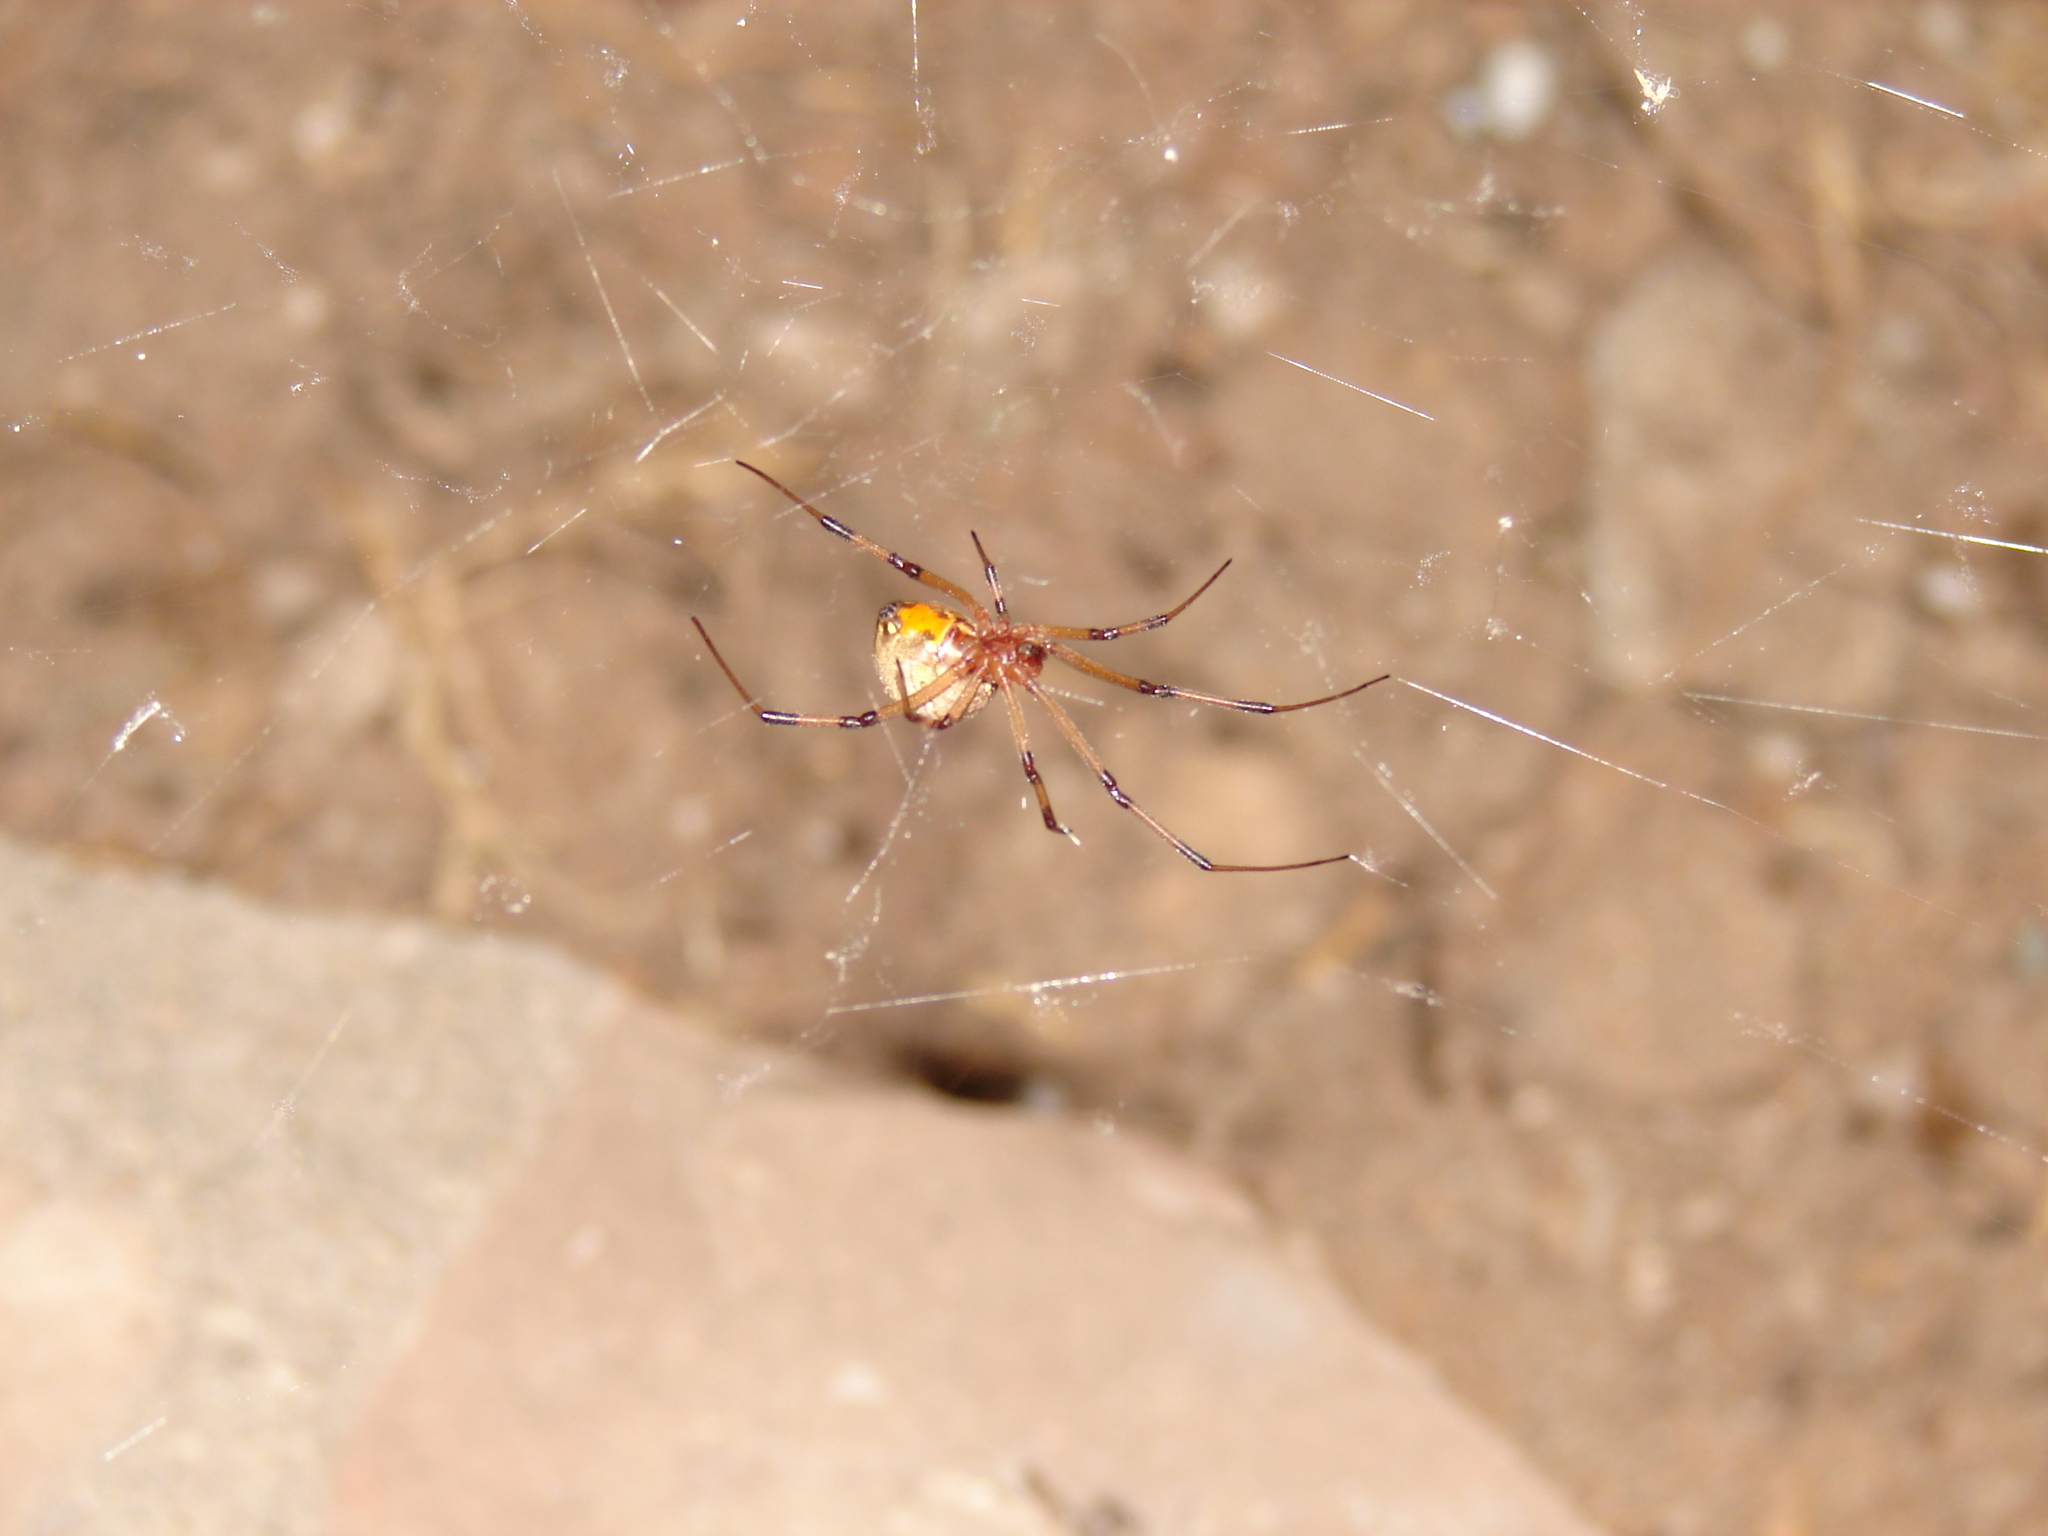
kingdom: Animalia
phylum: Arthropoda
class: Arachnida
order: Araneae
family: Theridiidae
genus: Latrodectus
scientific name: Latrodectus geometricus
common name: Brown widow spider
